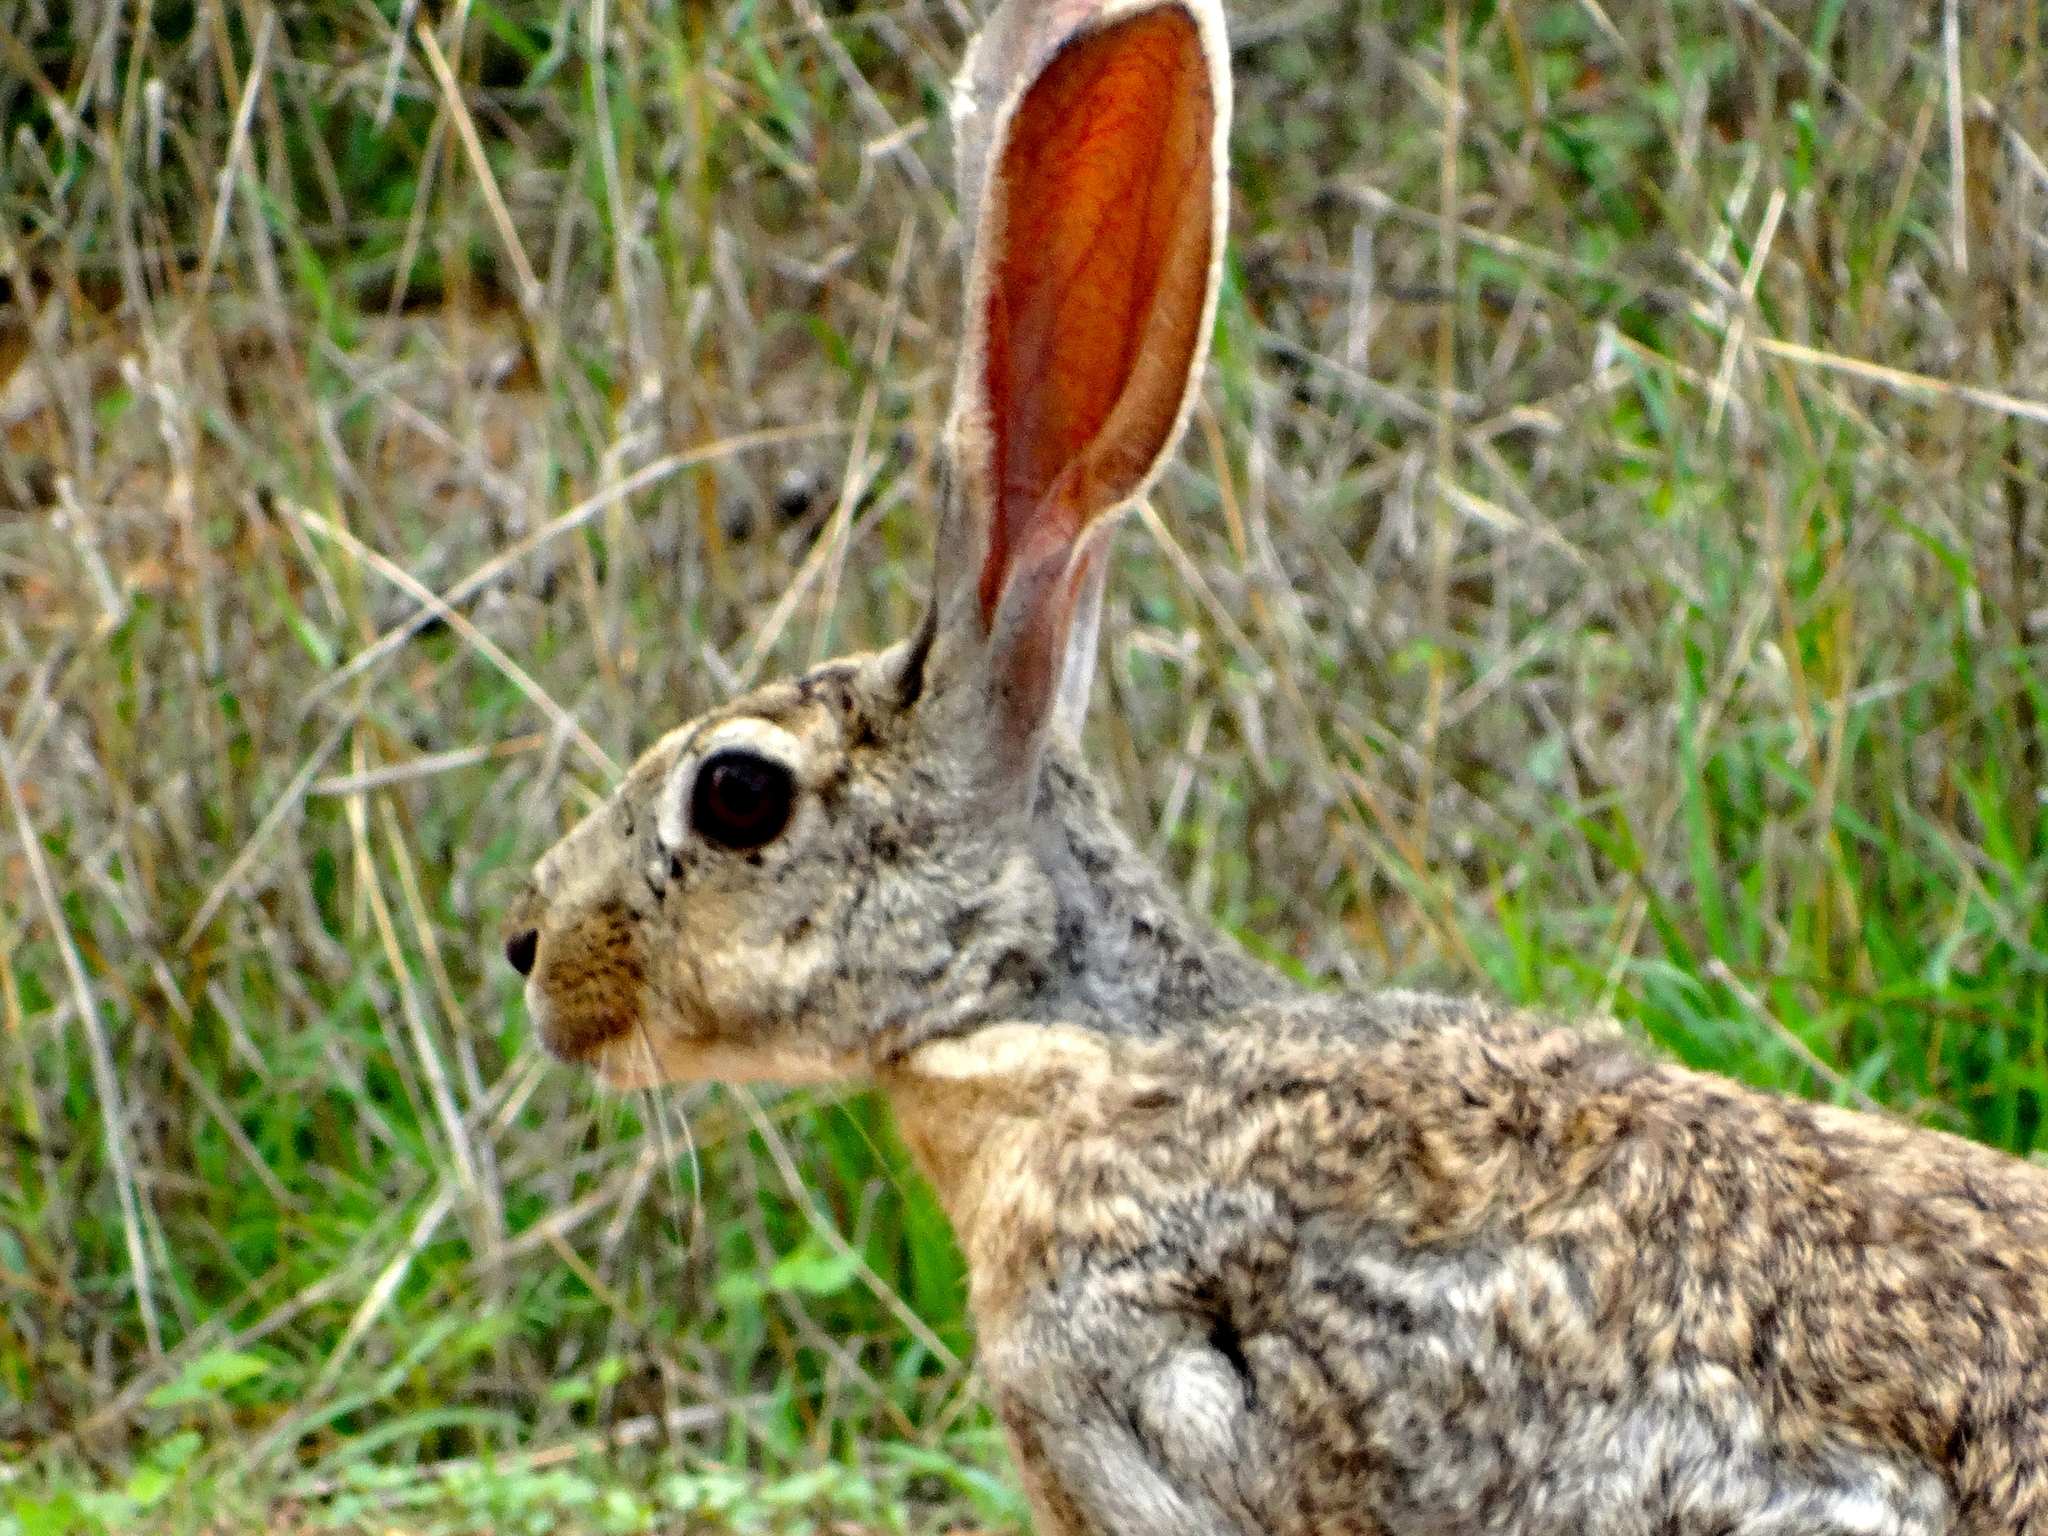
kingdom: Animalia
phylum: Chordata
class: Mammalia
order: Lagomorpha
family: Leporidae
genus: Lepus
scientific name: Lepus alleni
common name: Antelope jackrabbit
